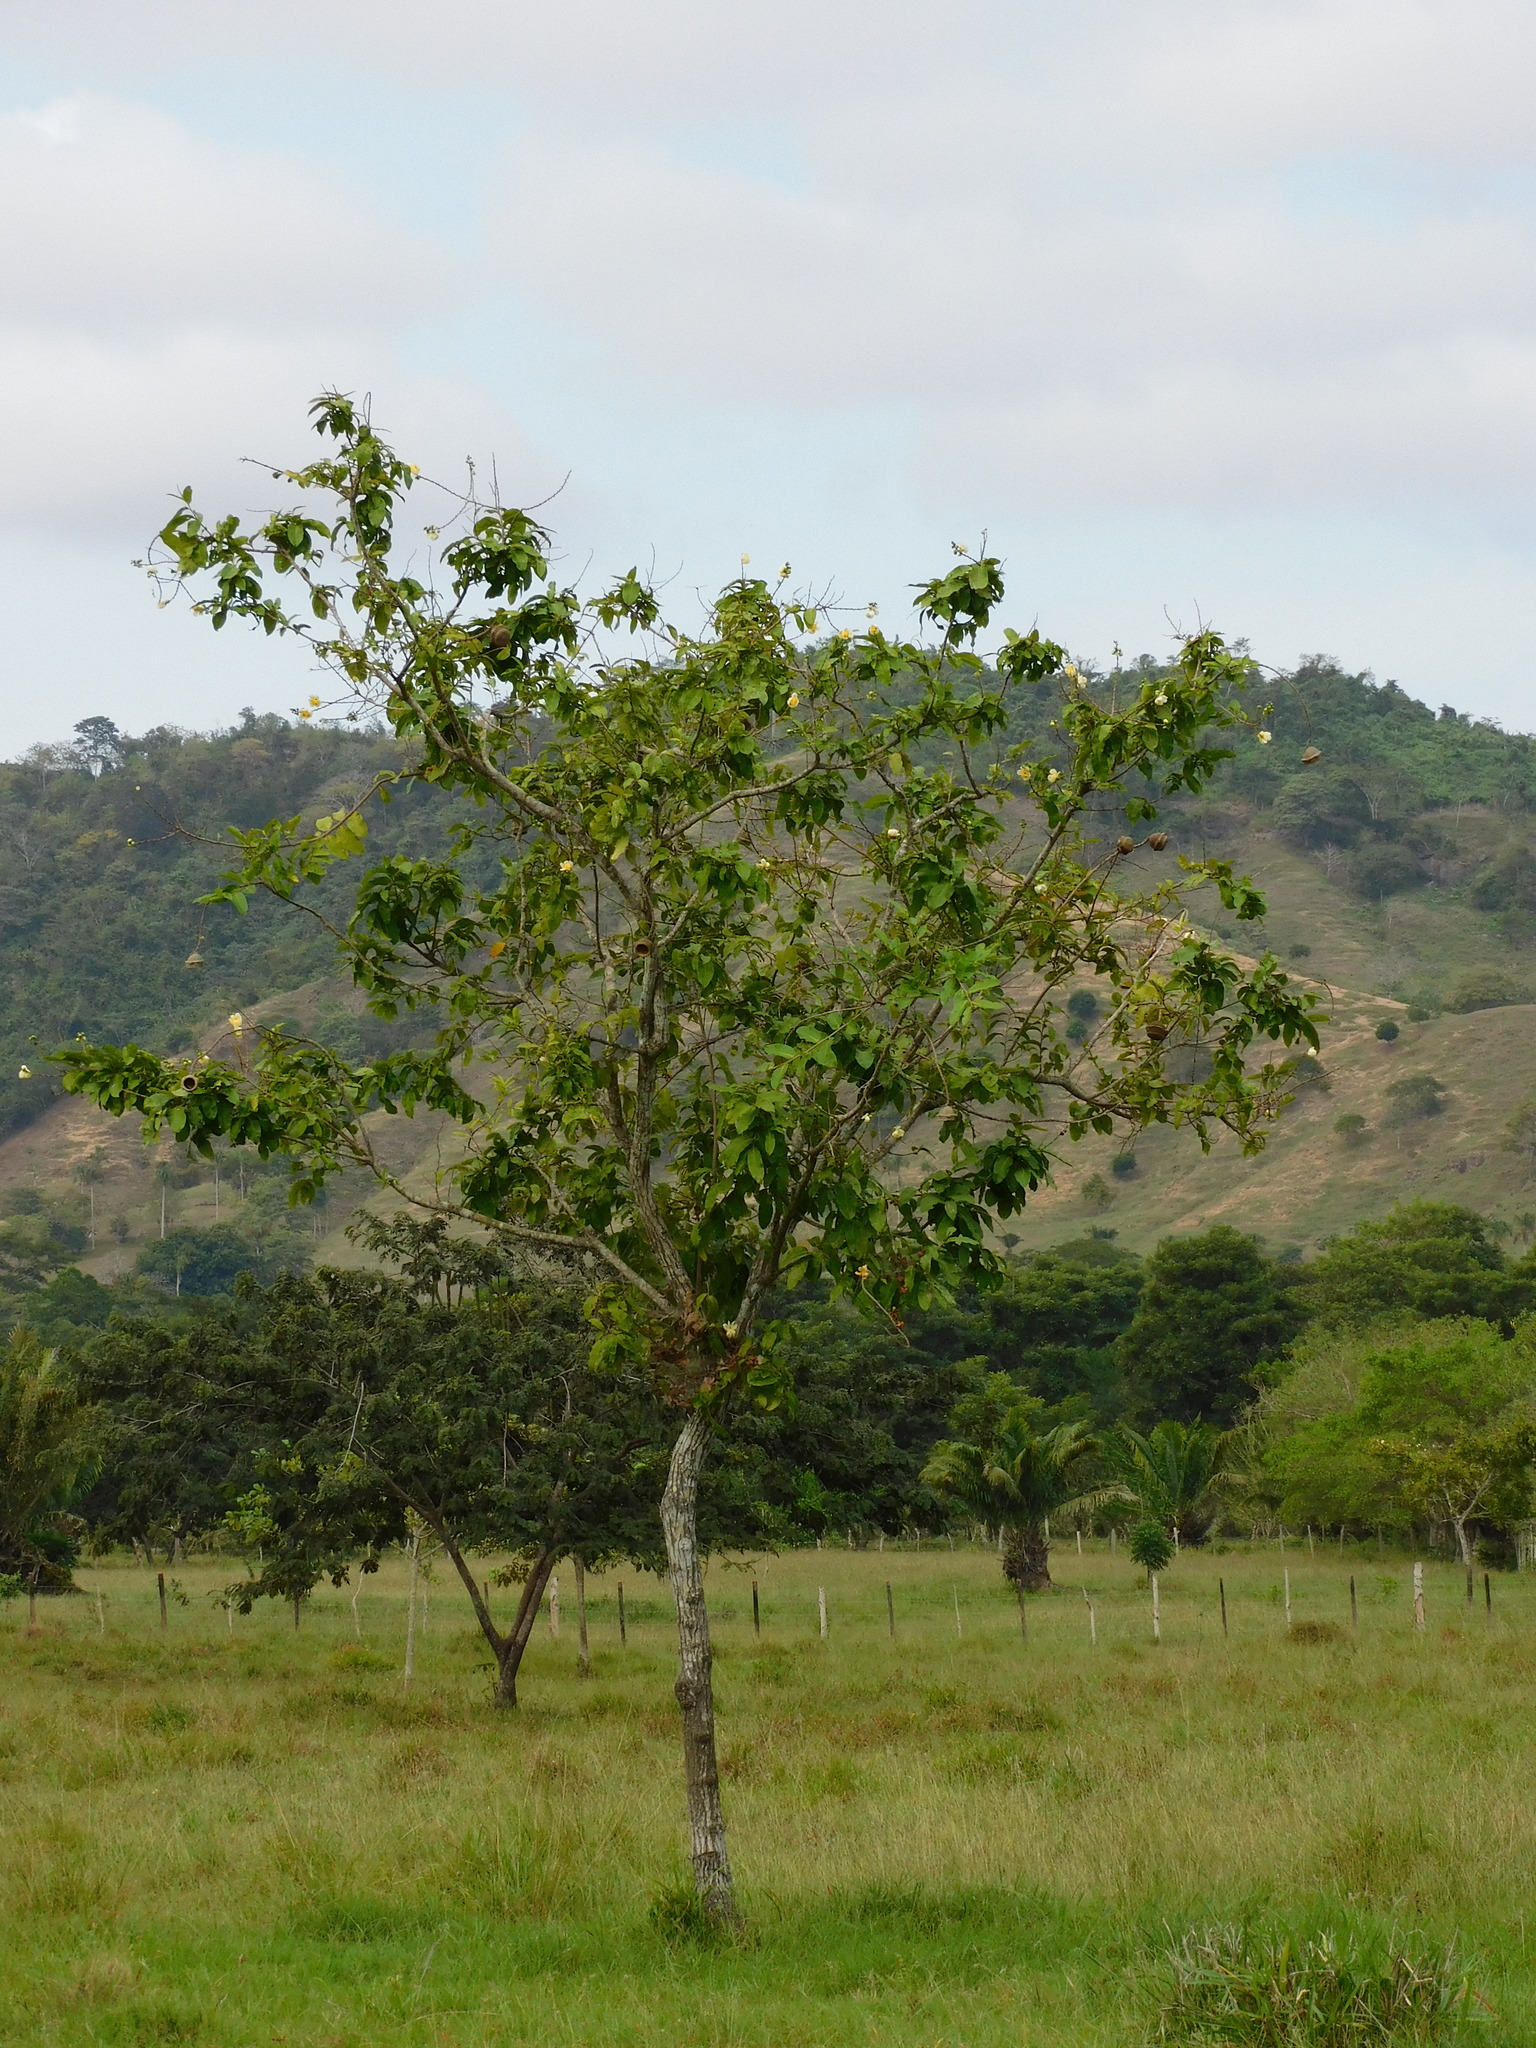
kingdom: Plantae
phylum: Tracheophyta
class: Magnoliopsida
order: Ericales
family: Lecythidaceae
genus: Lecythis
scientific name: Lecythis minor
